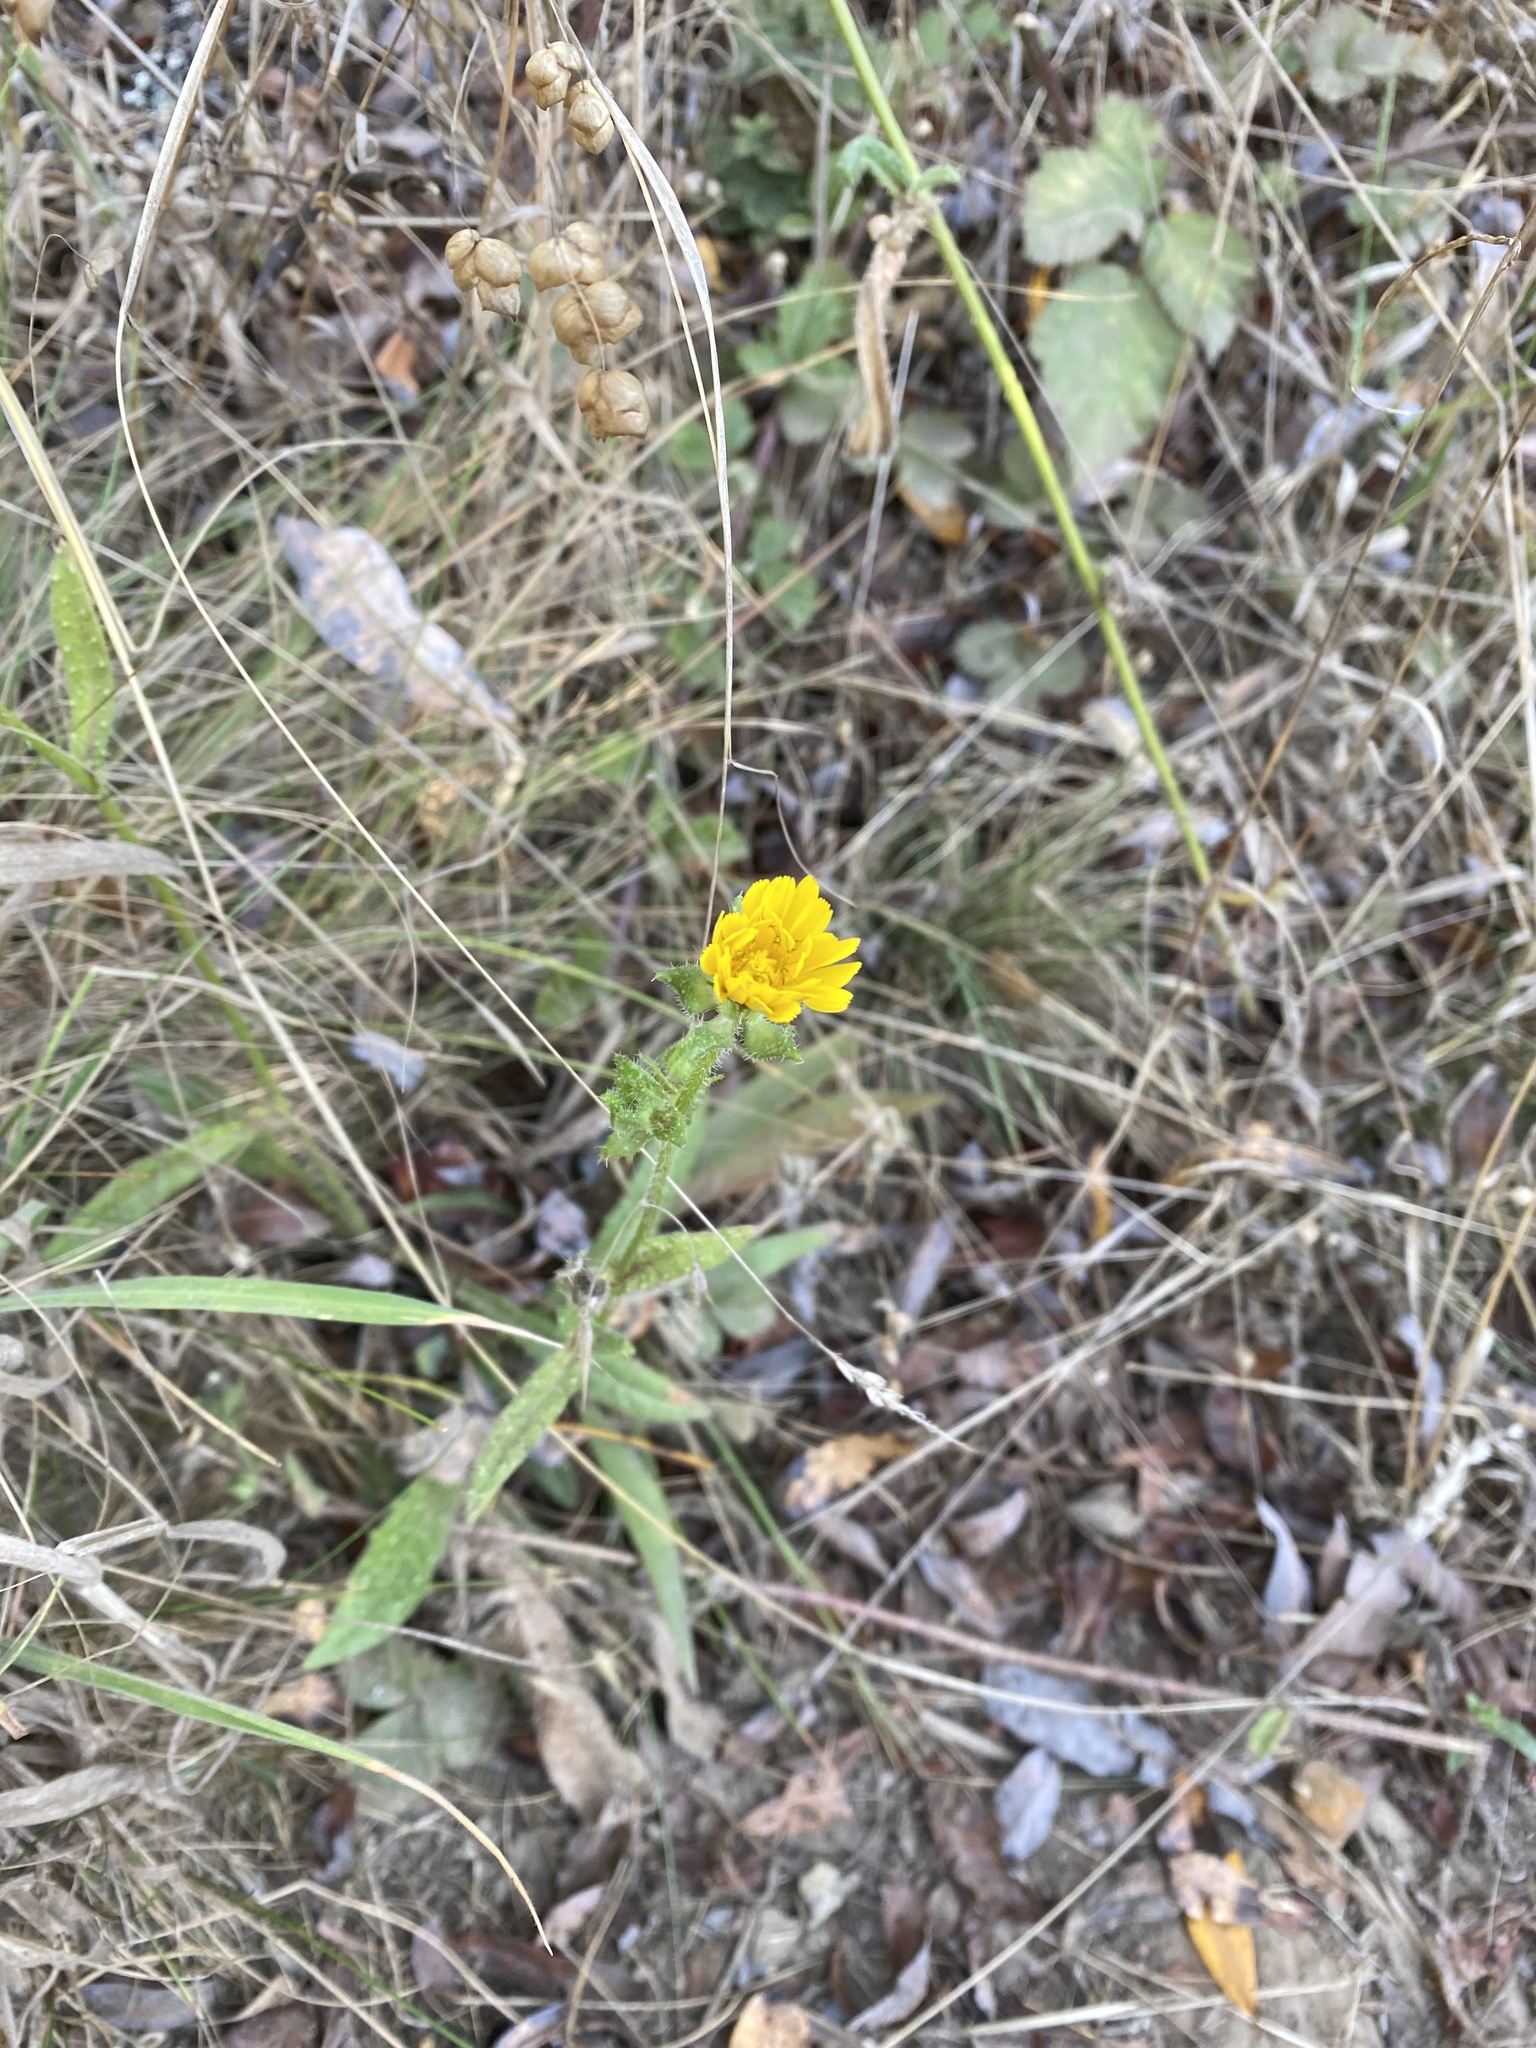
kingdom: Plantae
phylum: Tracheophyta
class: Magnoliopsida
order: Asterales
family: Asteraceae
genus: Helminthotheca
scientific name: Helminthotheca echioides
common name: Ox-tongue
